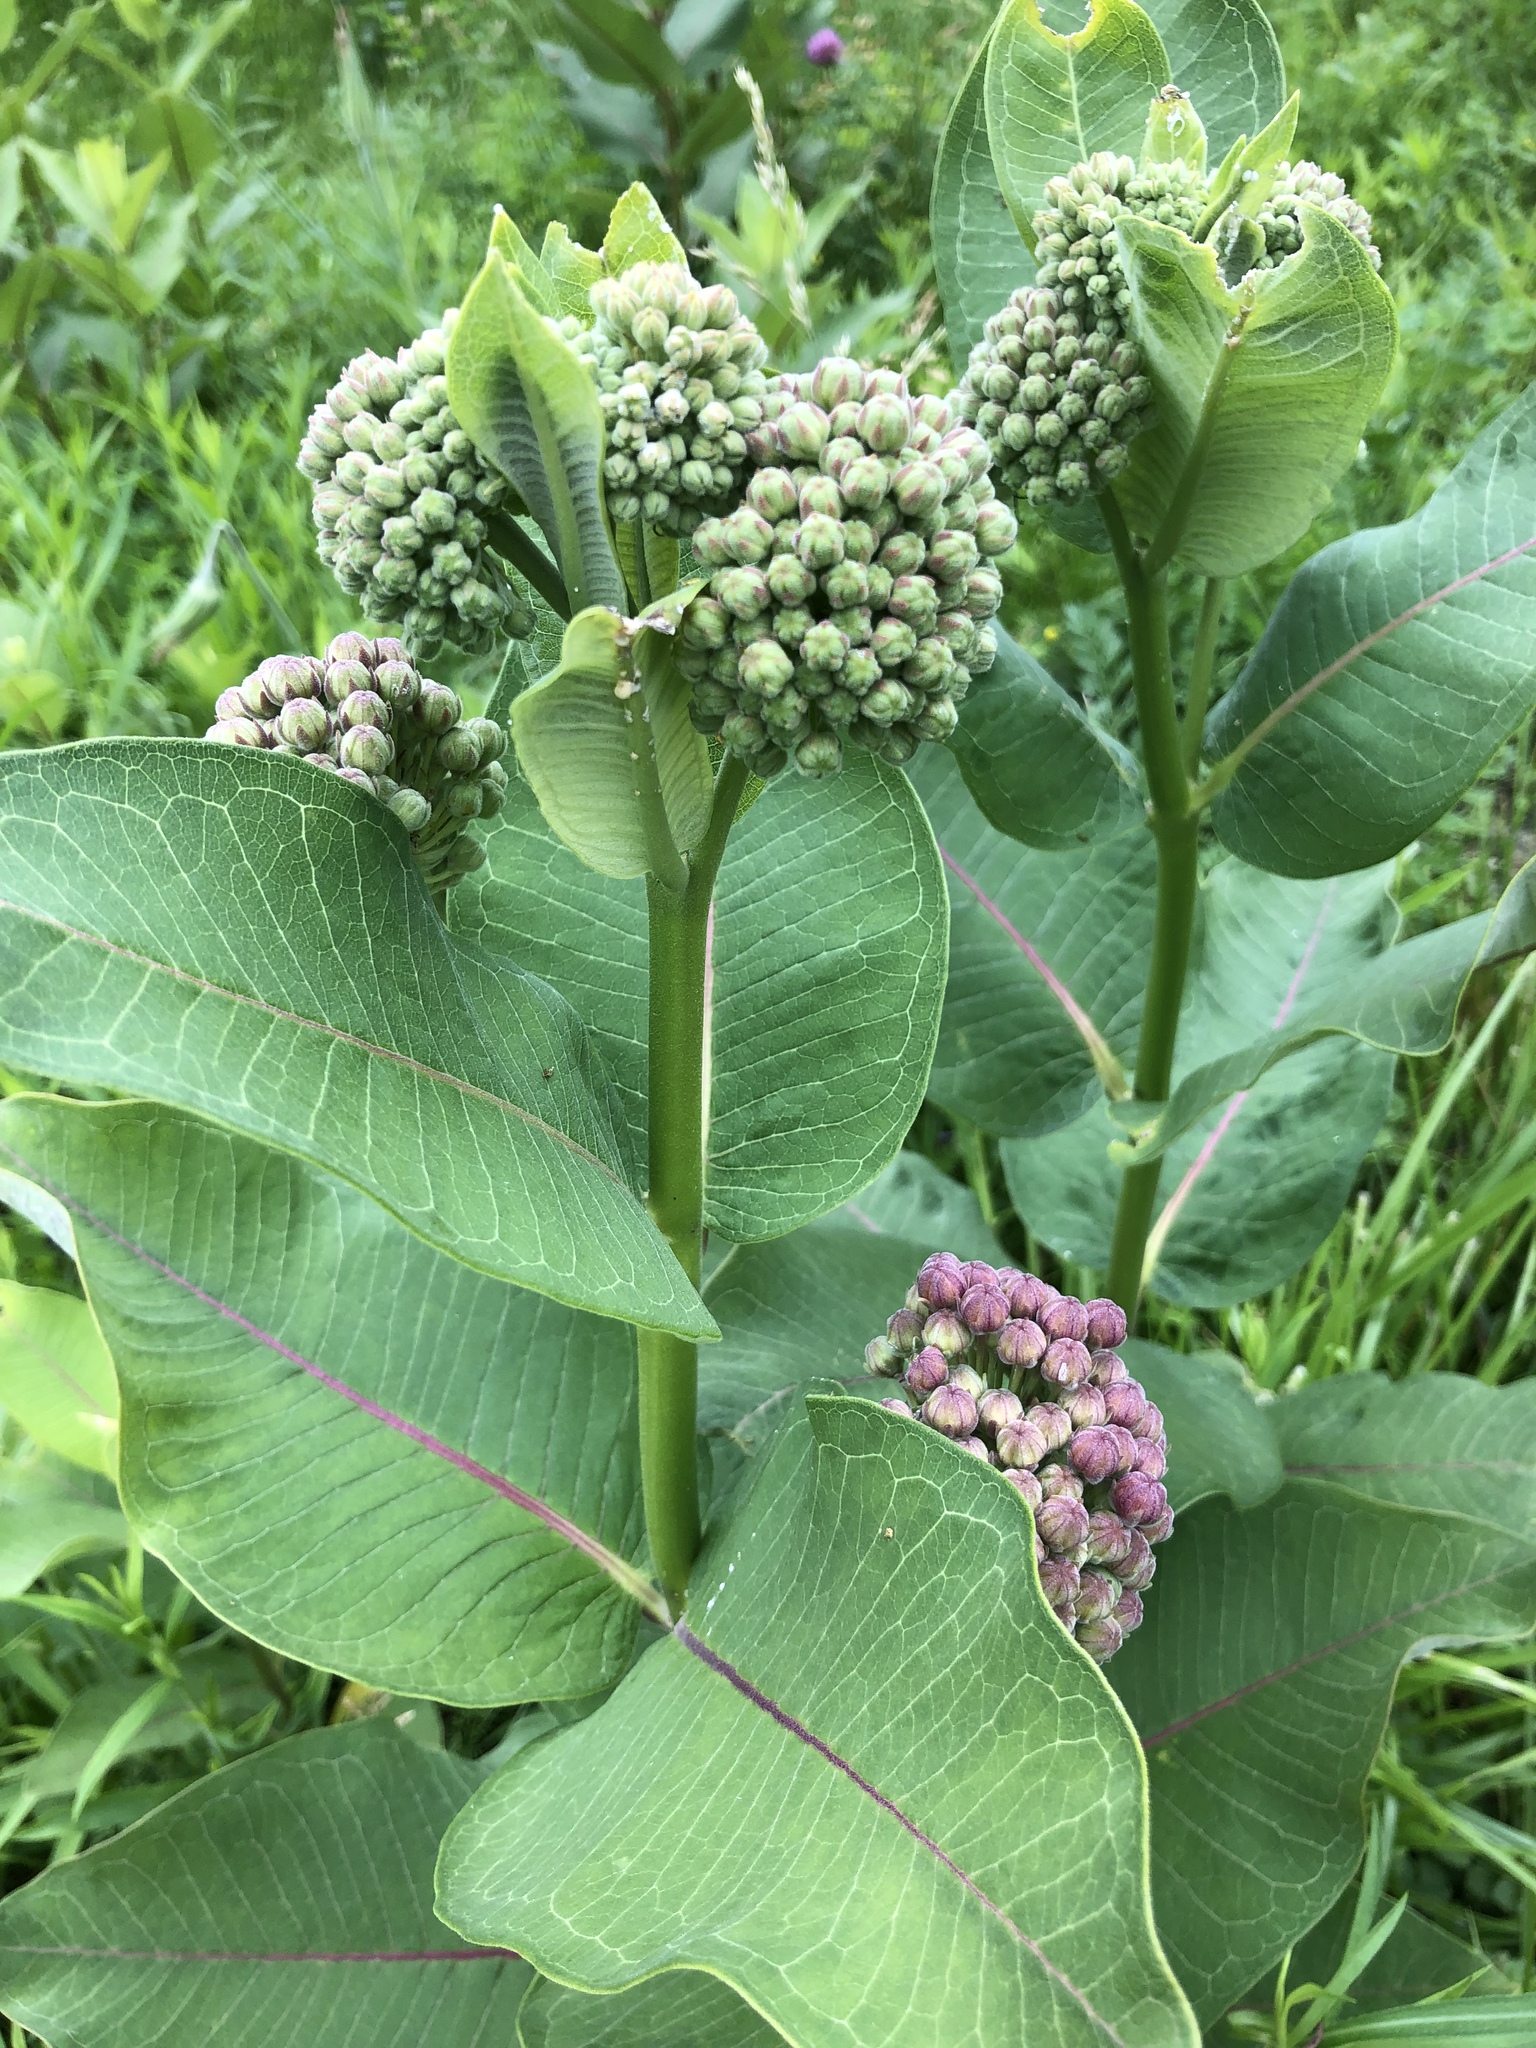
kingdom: Plantae
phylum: Tracheophyta
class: Magnoliopsida
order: Gentianales
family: Apocynaceae
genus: Asclepias
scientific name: Asclepias syriaca
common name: Common milkweed
